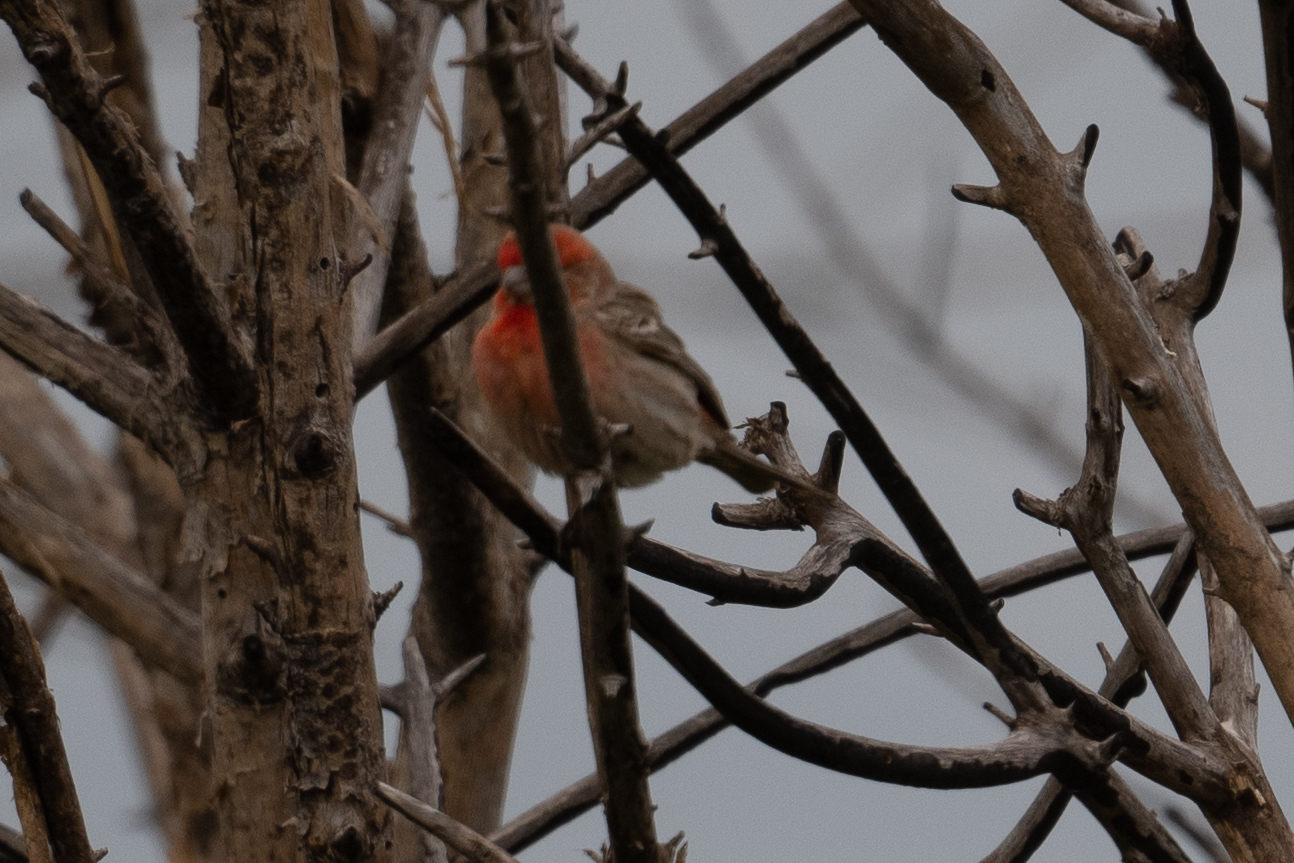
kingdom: Animalia
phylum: Chordata
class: Aves
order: Passeriformes
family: Fringillidae
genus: Haemorhous
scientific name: Haemorhous mexicanus
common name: House finch
